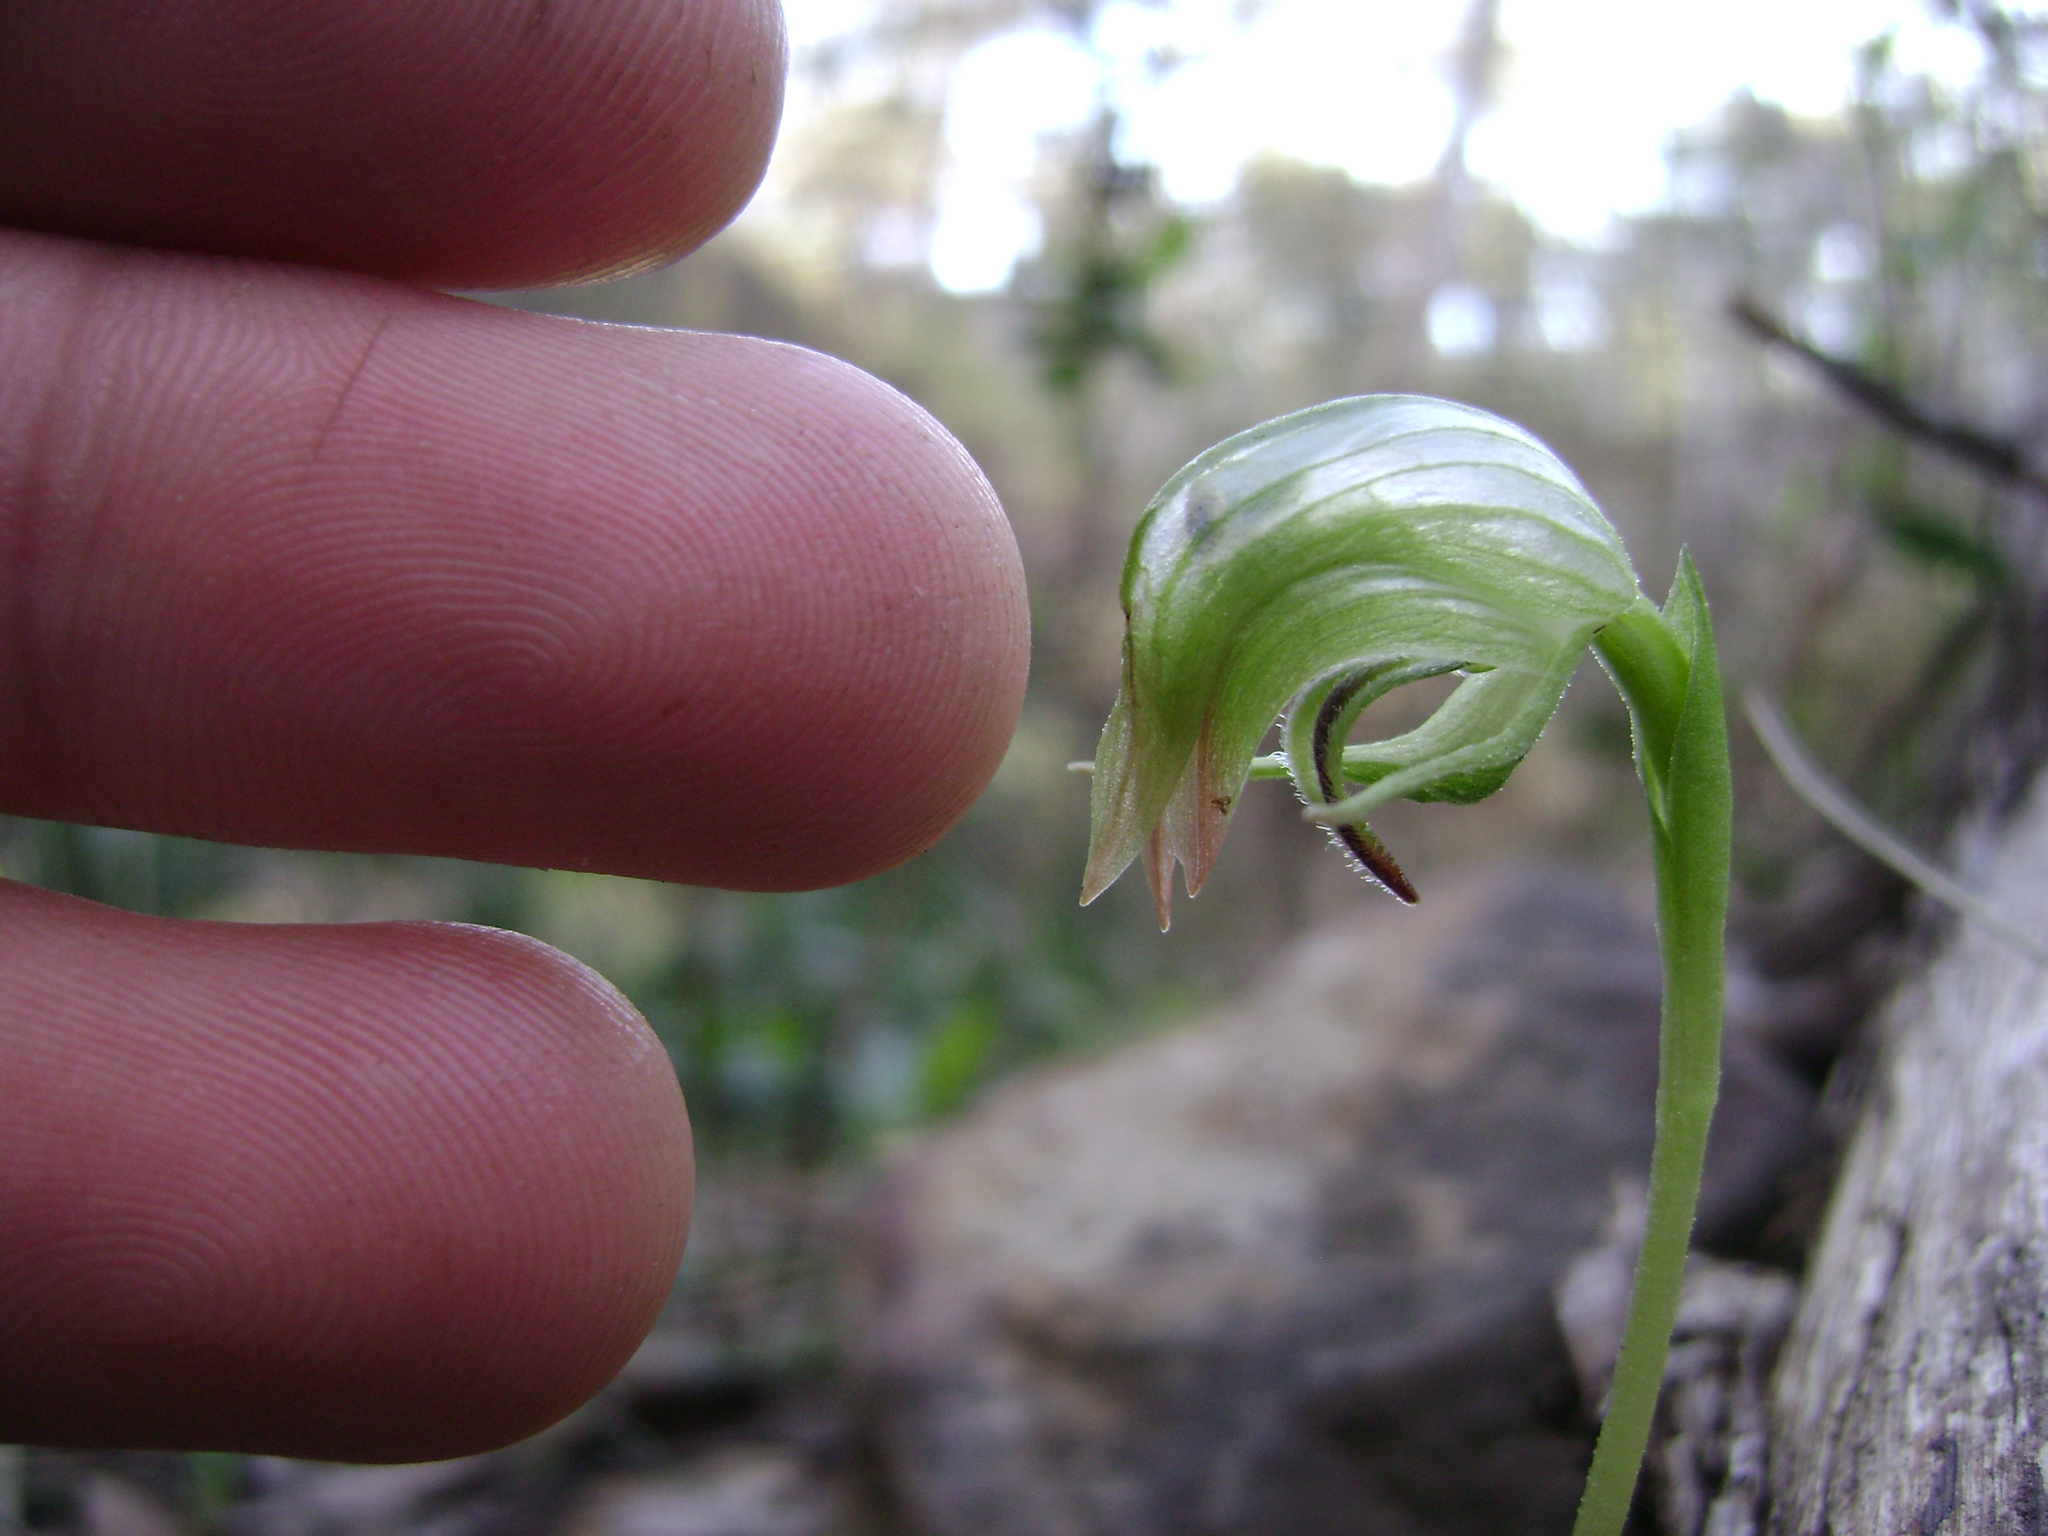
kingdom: Plantae
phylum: Tracheophyta
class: Liliopsida
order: Asparagales
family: Orchidaceae
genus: Pterostylis
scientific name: Pterostylis nutans
